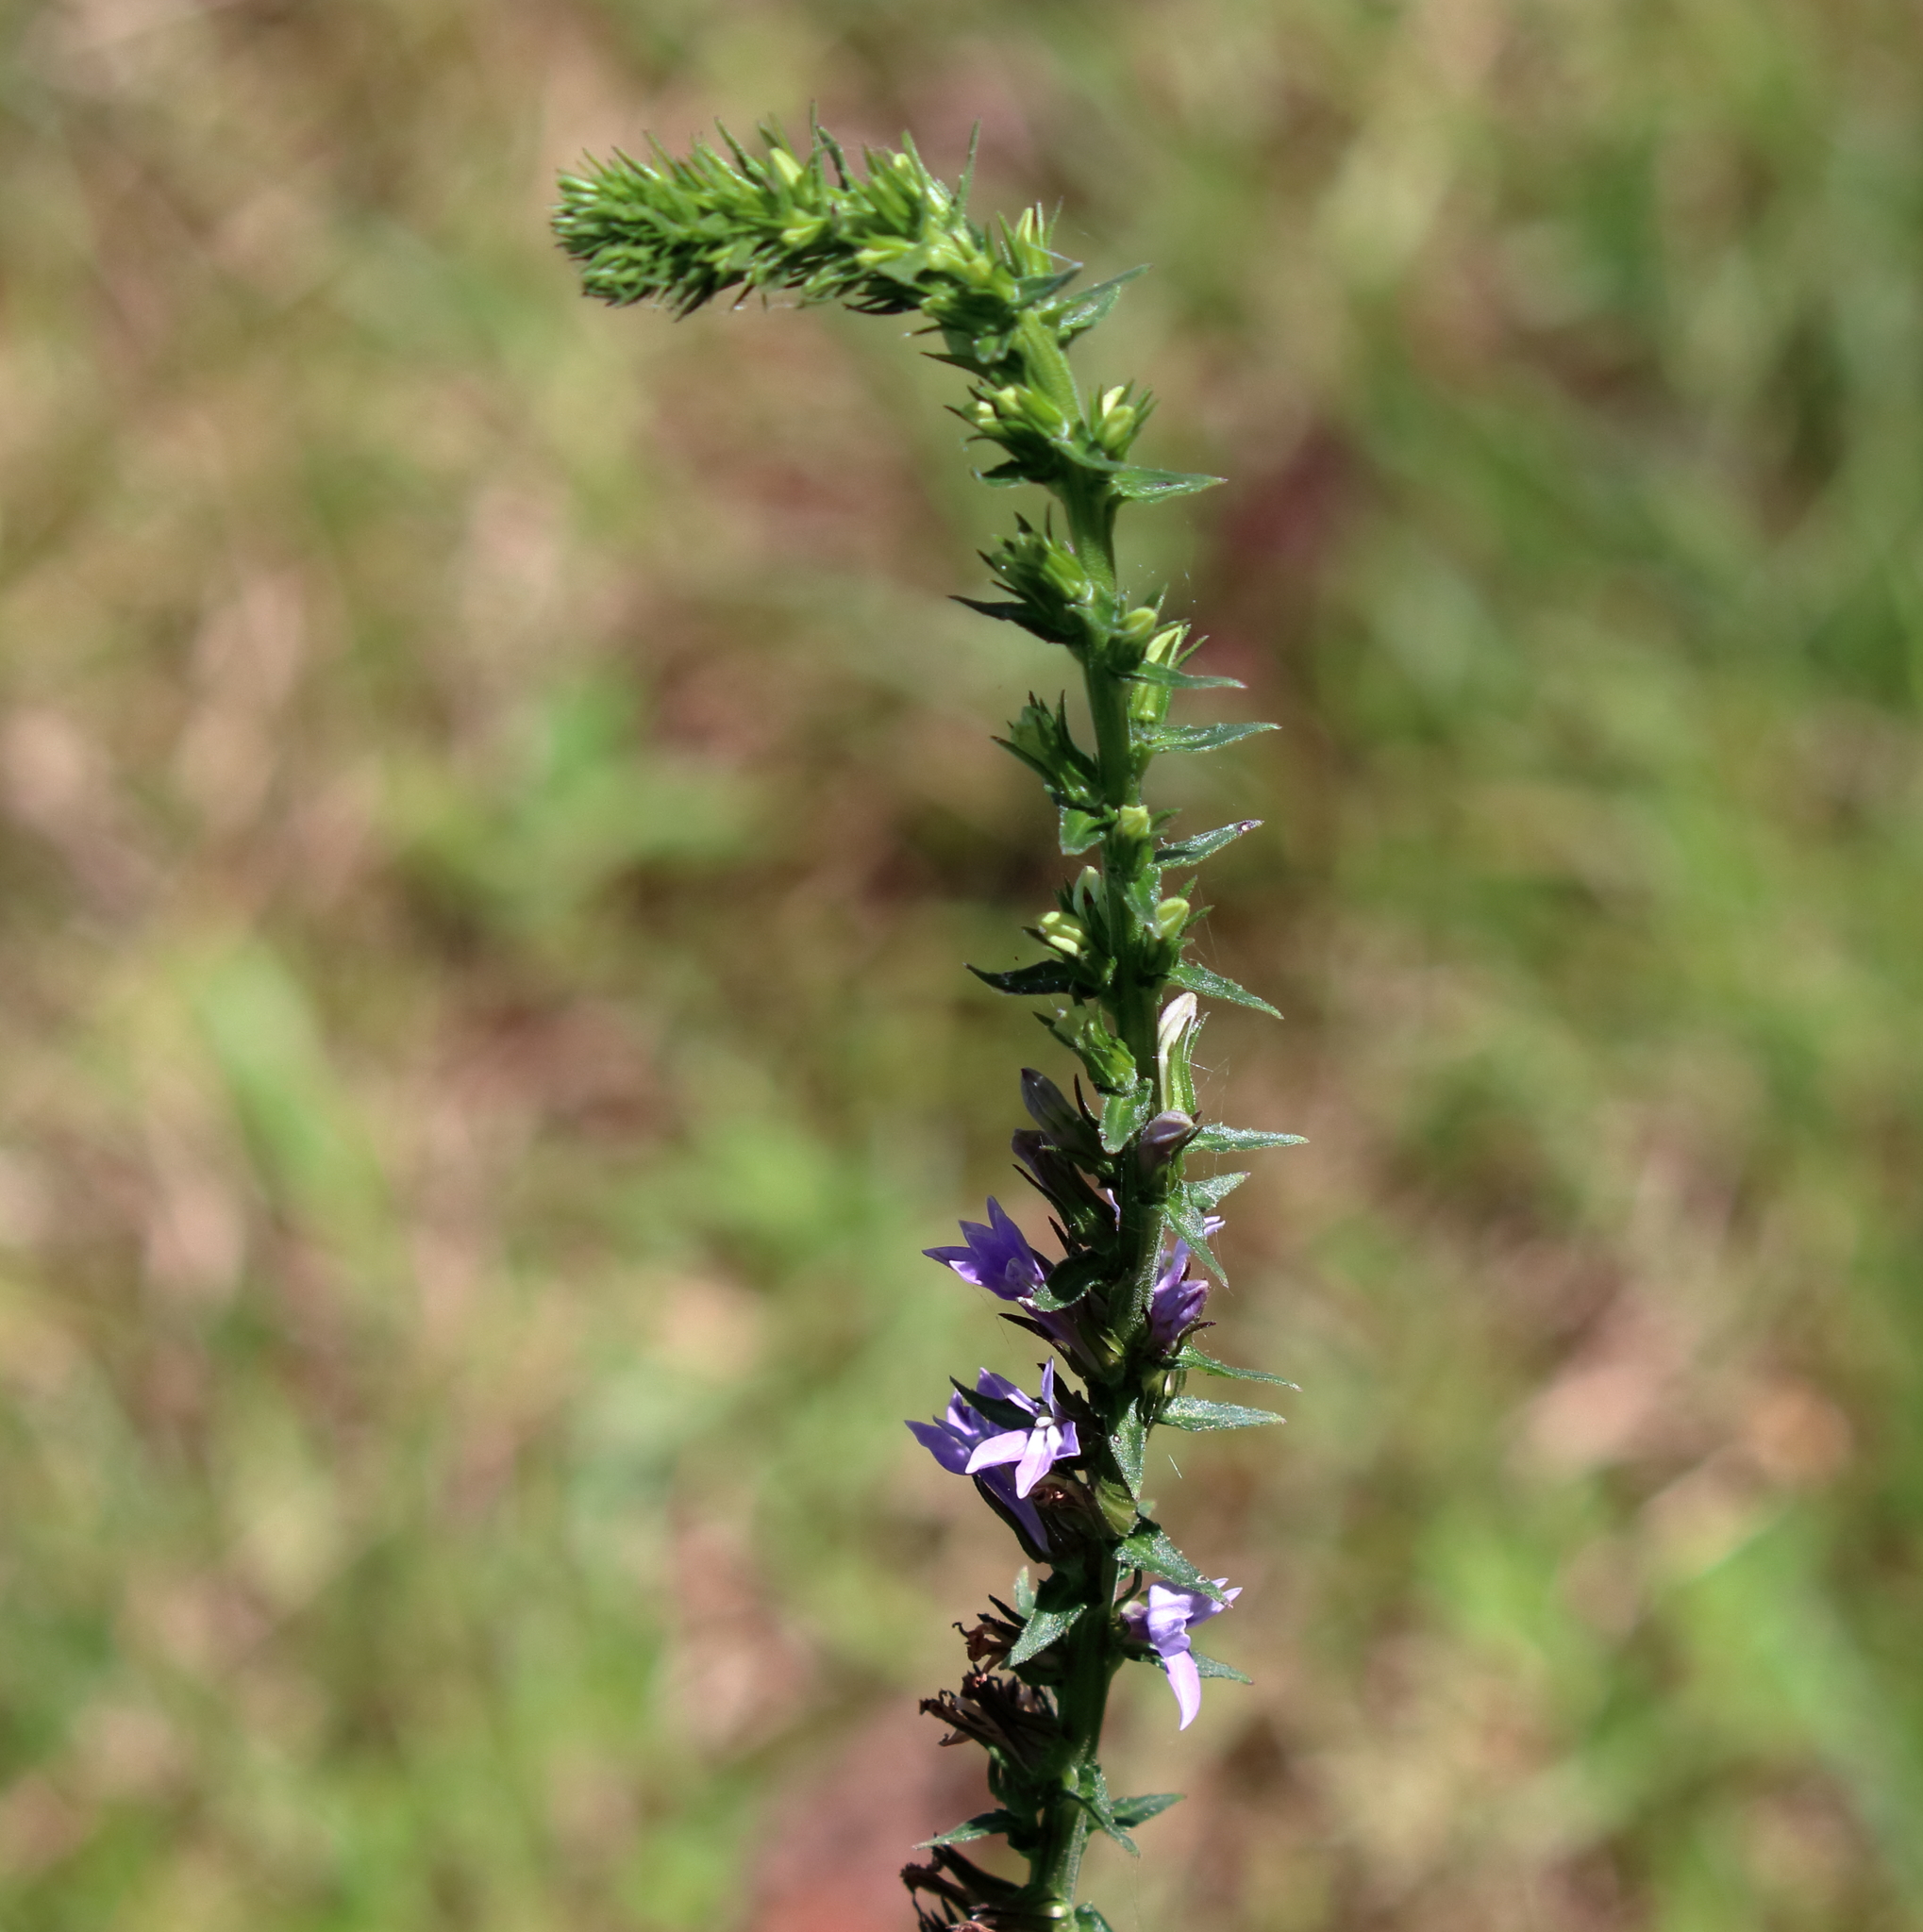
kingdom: Plantae
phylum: Tracheophyta
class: Magnoliopsida
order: Asterales
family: Campanulaceae
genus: Lobelia
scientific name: Lobelia puberula
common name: Purple dewdrop
